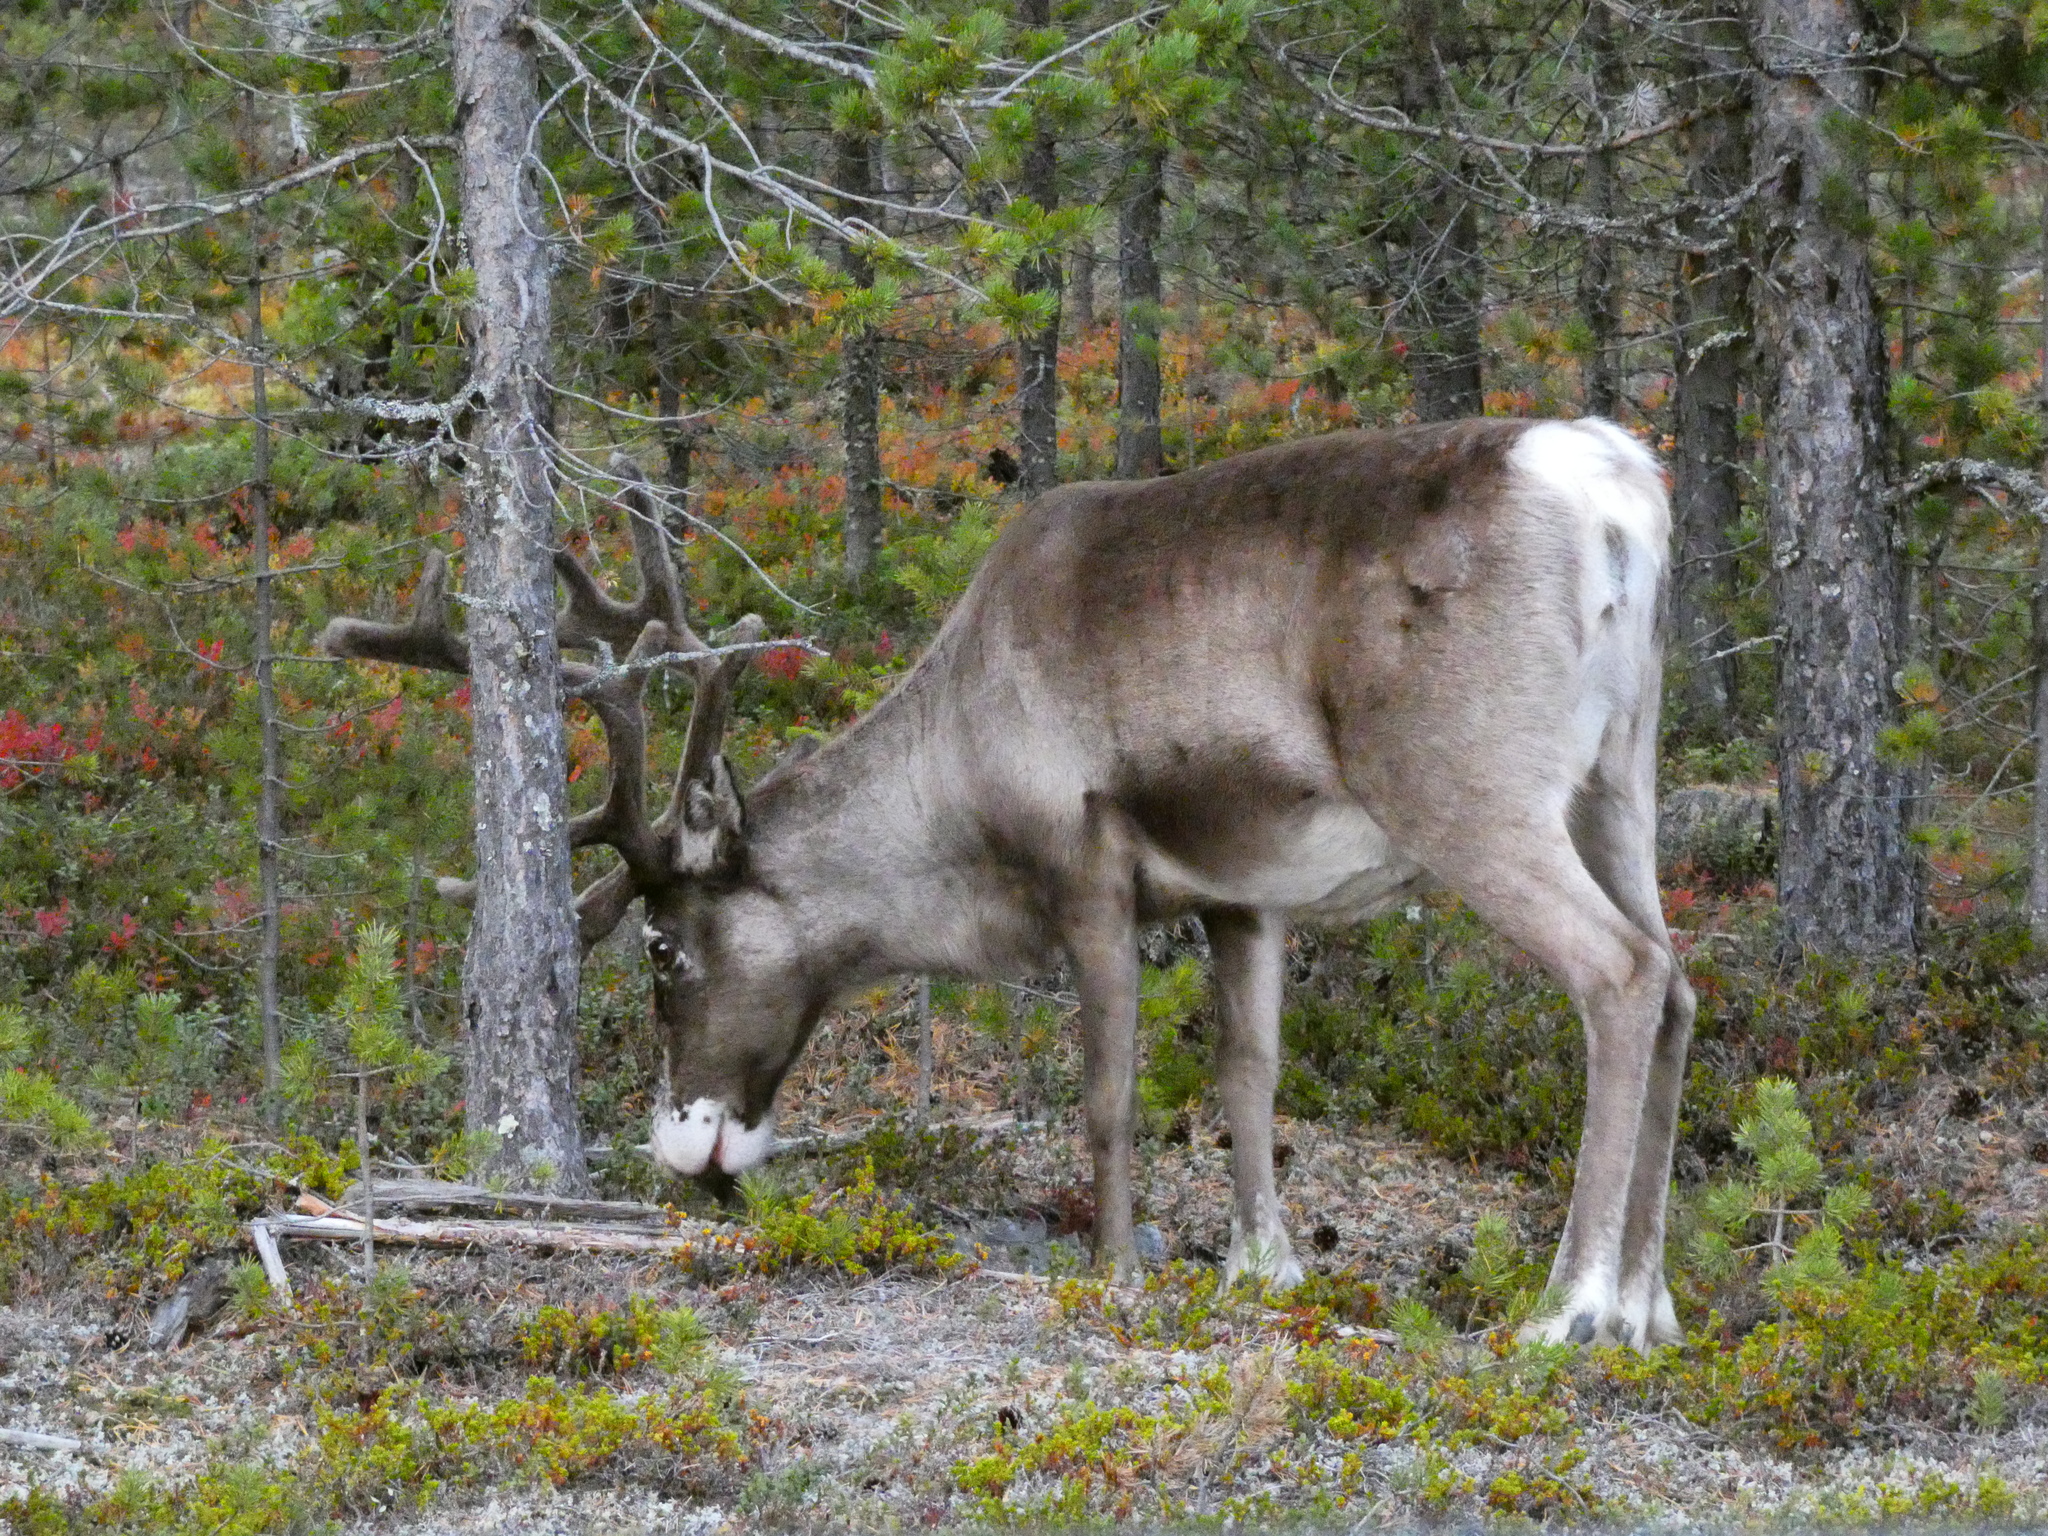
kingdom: Animalia
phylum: Chordata
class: Mammalia
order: Artiodactyla
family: Cervidae
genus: Rangifer
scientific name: Rangifer tarandus
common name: Reindeer
